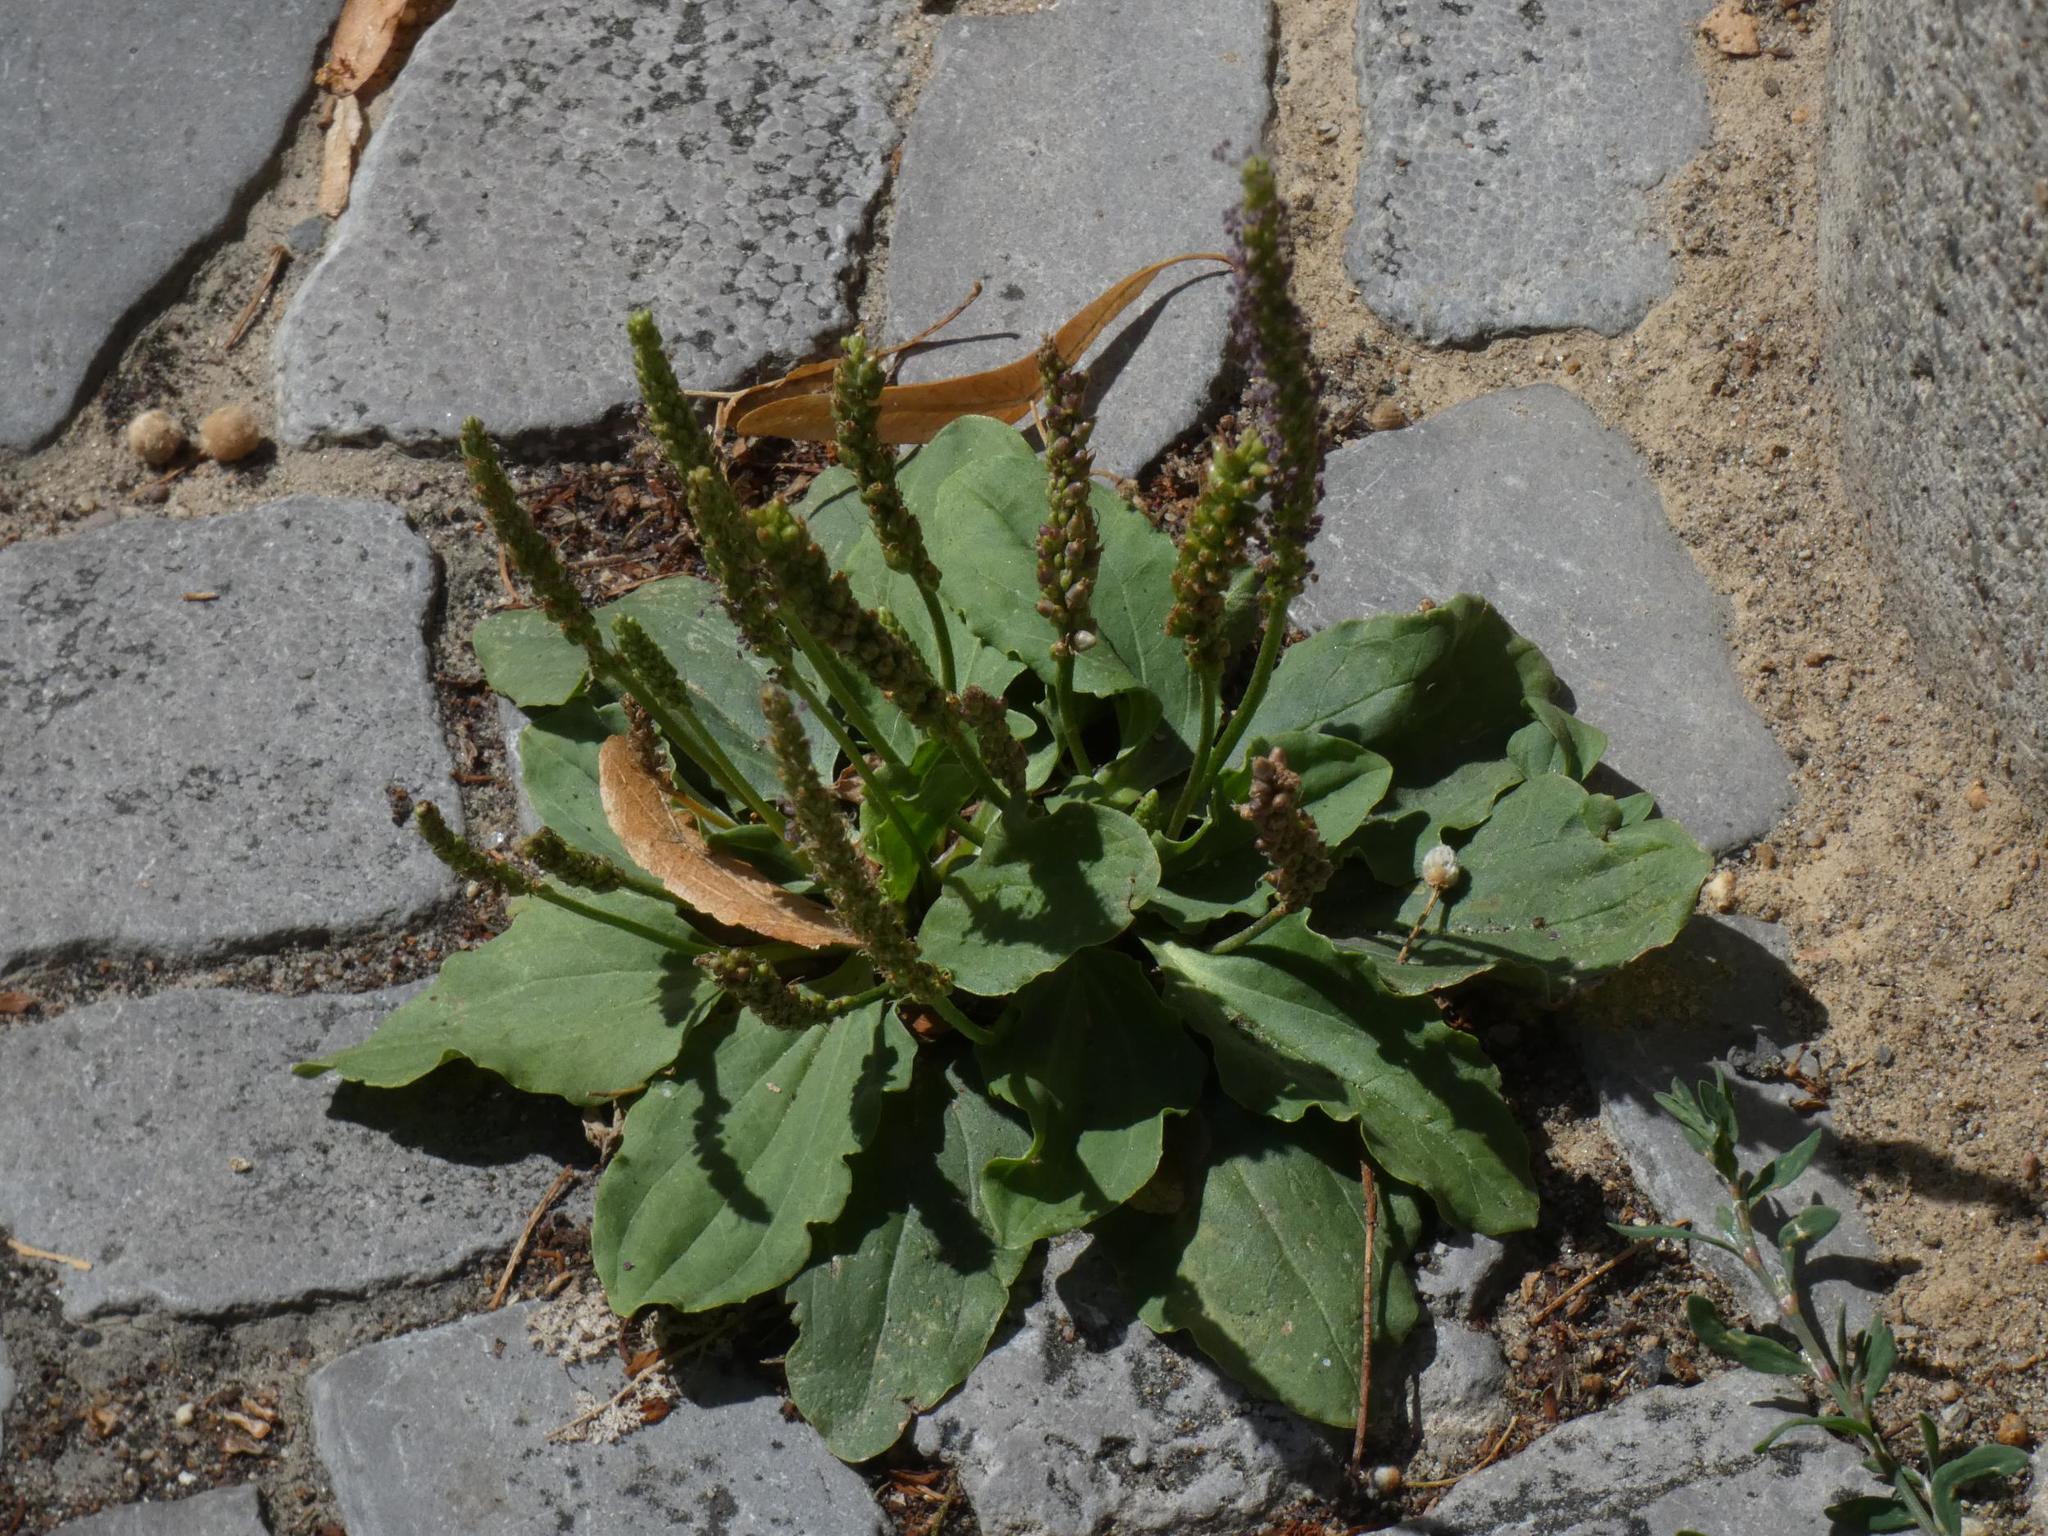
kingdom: Plantae
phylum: Tracheophyta
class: Magnoliopsida
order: Lamiales
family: Plantaginaceae
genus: Plantago
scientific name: Plantago major
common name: Common plantain
